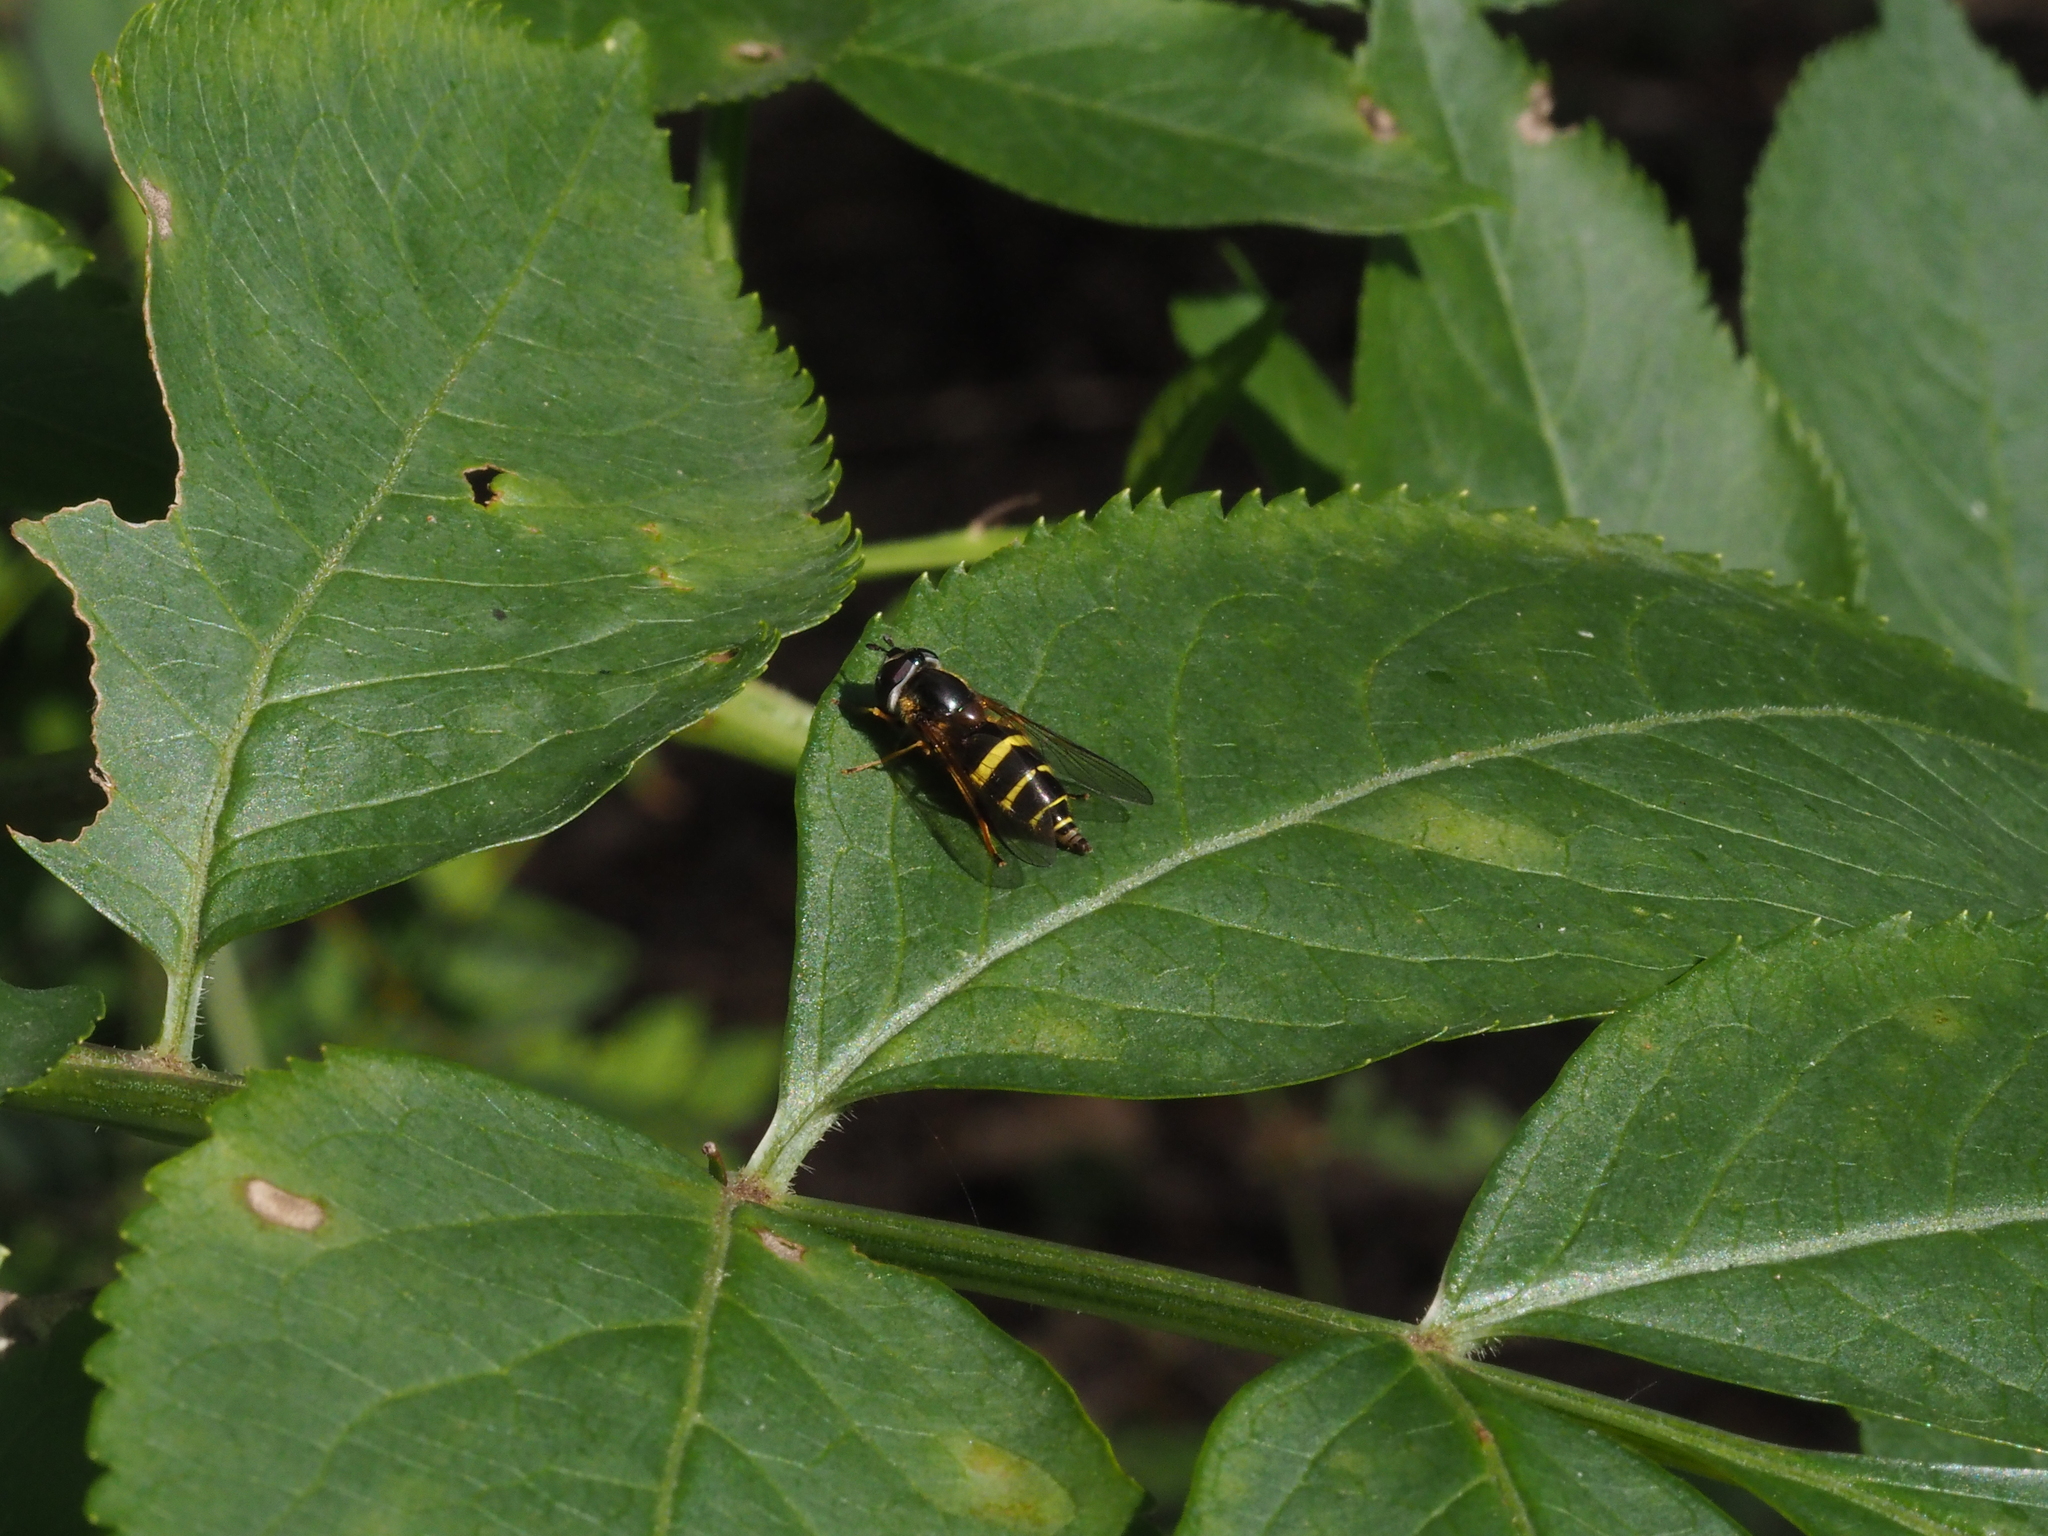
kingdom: Animalia
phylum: Arthropoda
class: Insecta
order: Diptera
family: Syrphidae
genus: Dasysyrphus
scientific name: Dasysyrphus tricinctus
